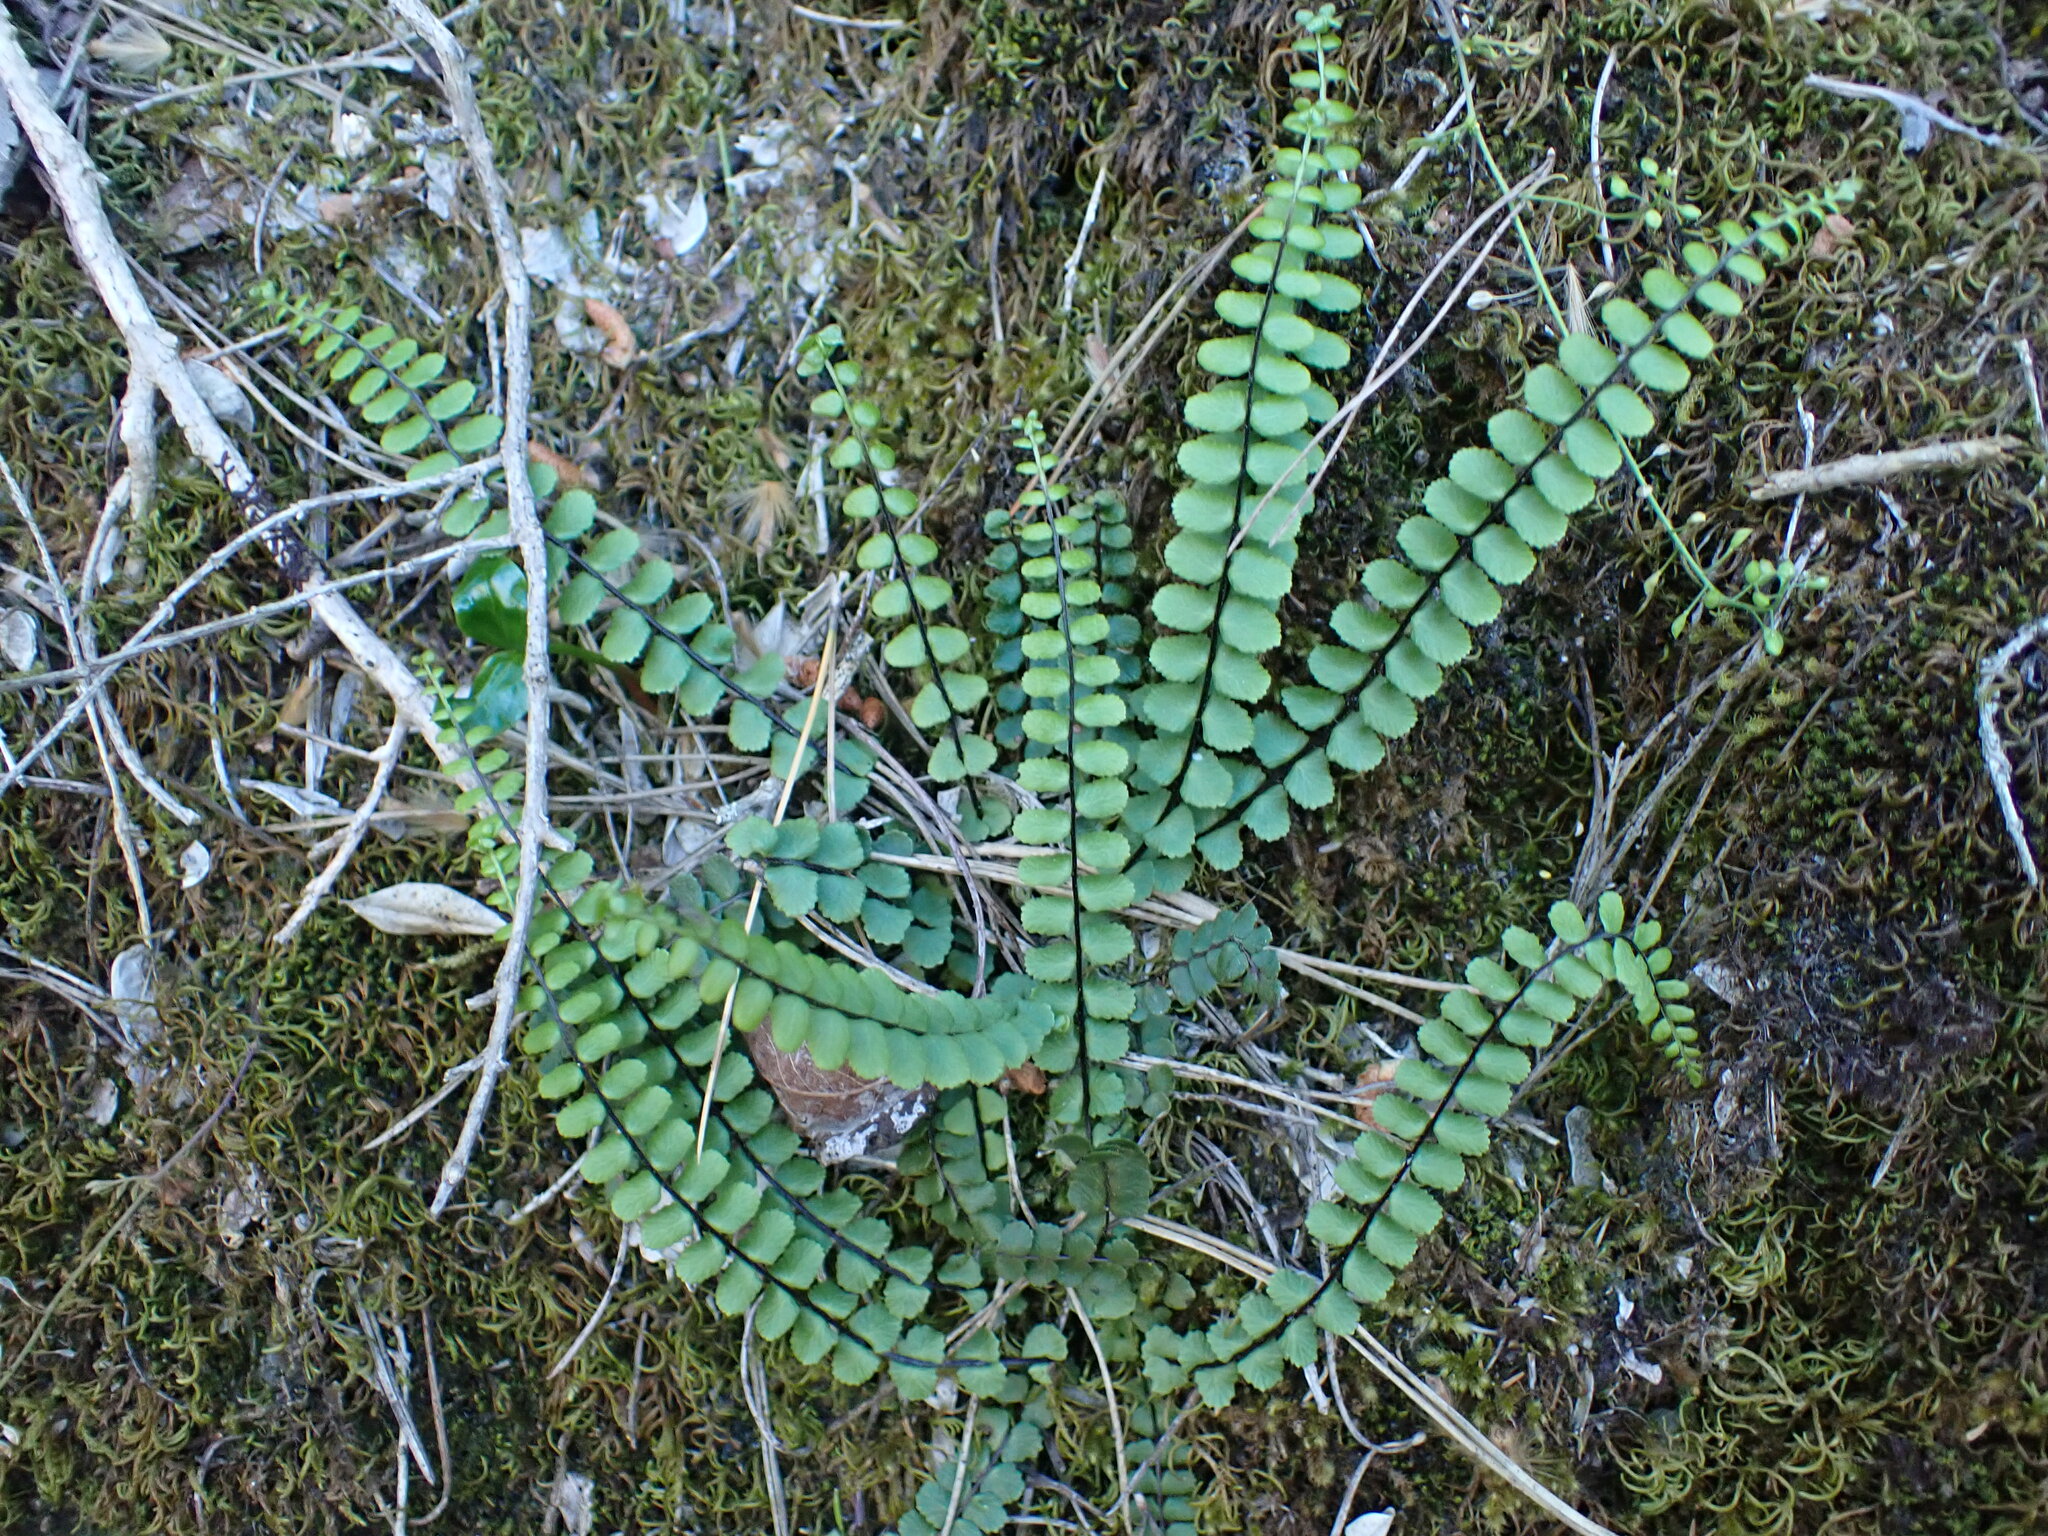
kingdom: Plantae
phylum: Tracheophyta
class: Polypodiopsida
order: Polypodiales
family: Aspleniaceae
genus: Asplenium
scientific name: Asplenium trichomanes
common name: Maidenhair spleenwort
